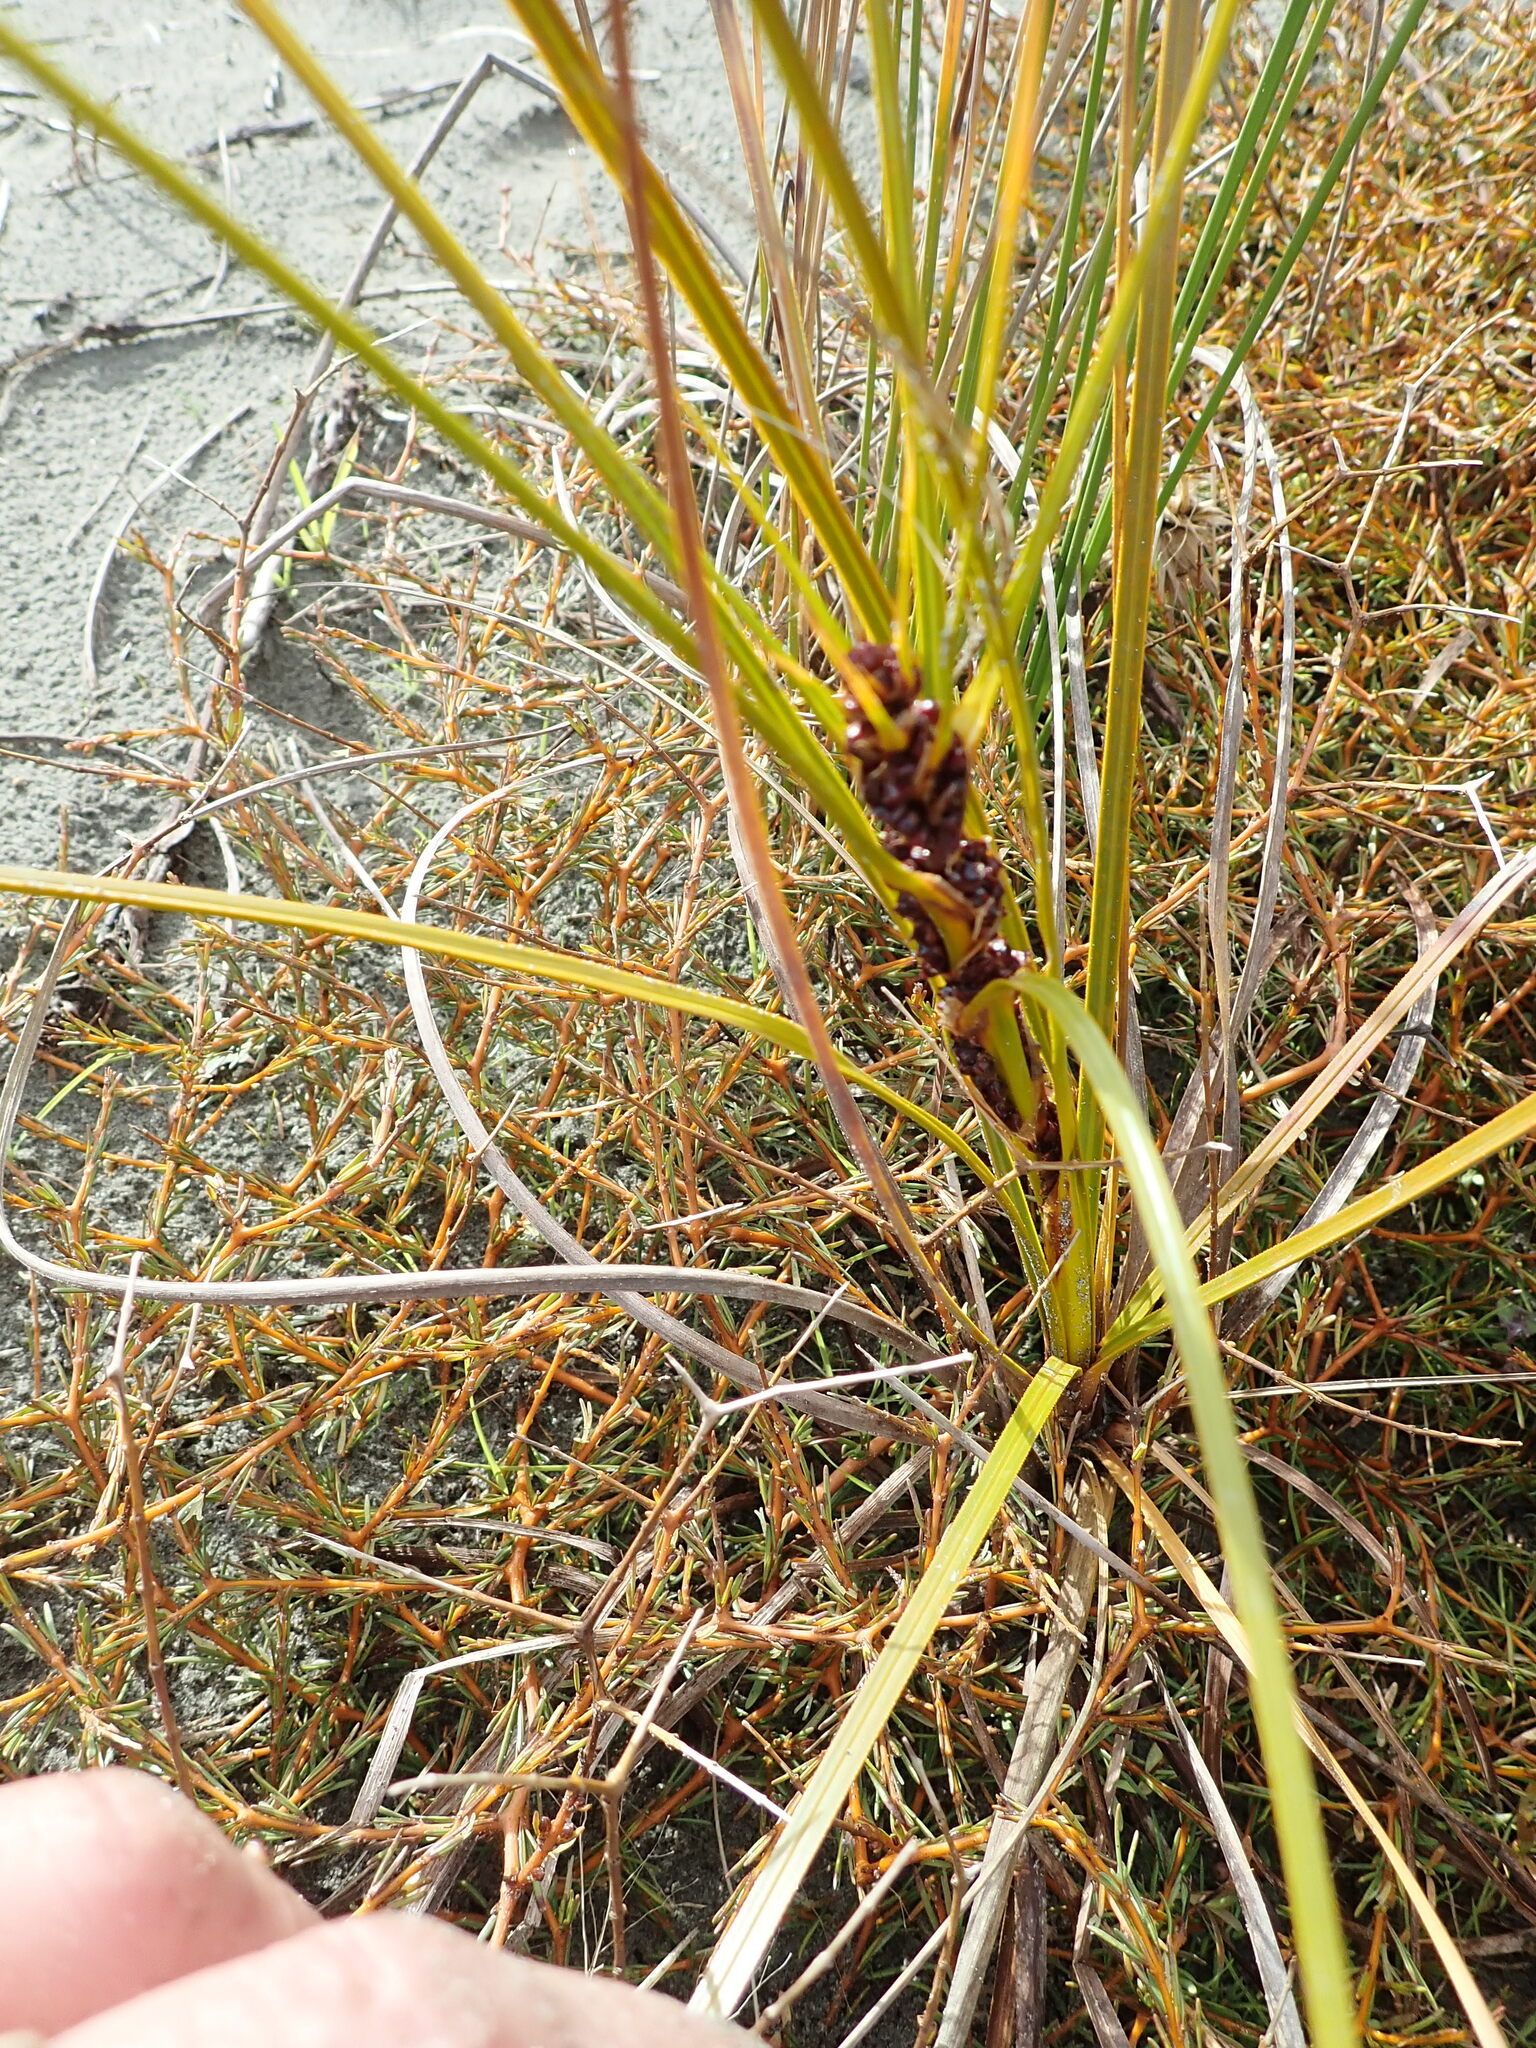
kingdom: Plantae
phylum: Tracheophyta
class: Liliopsida
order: Poales
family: Cyperaceae
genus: Ficinia
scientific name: Ficinia spiralis
